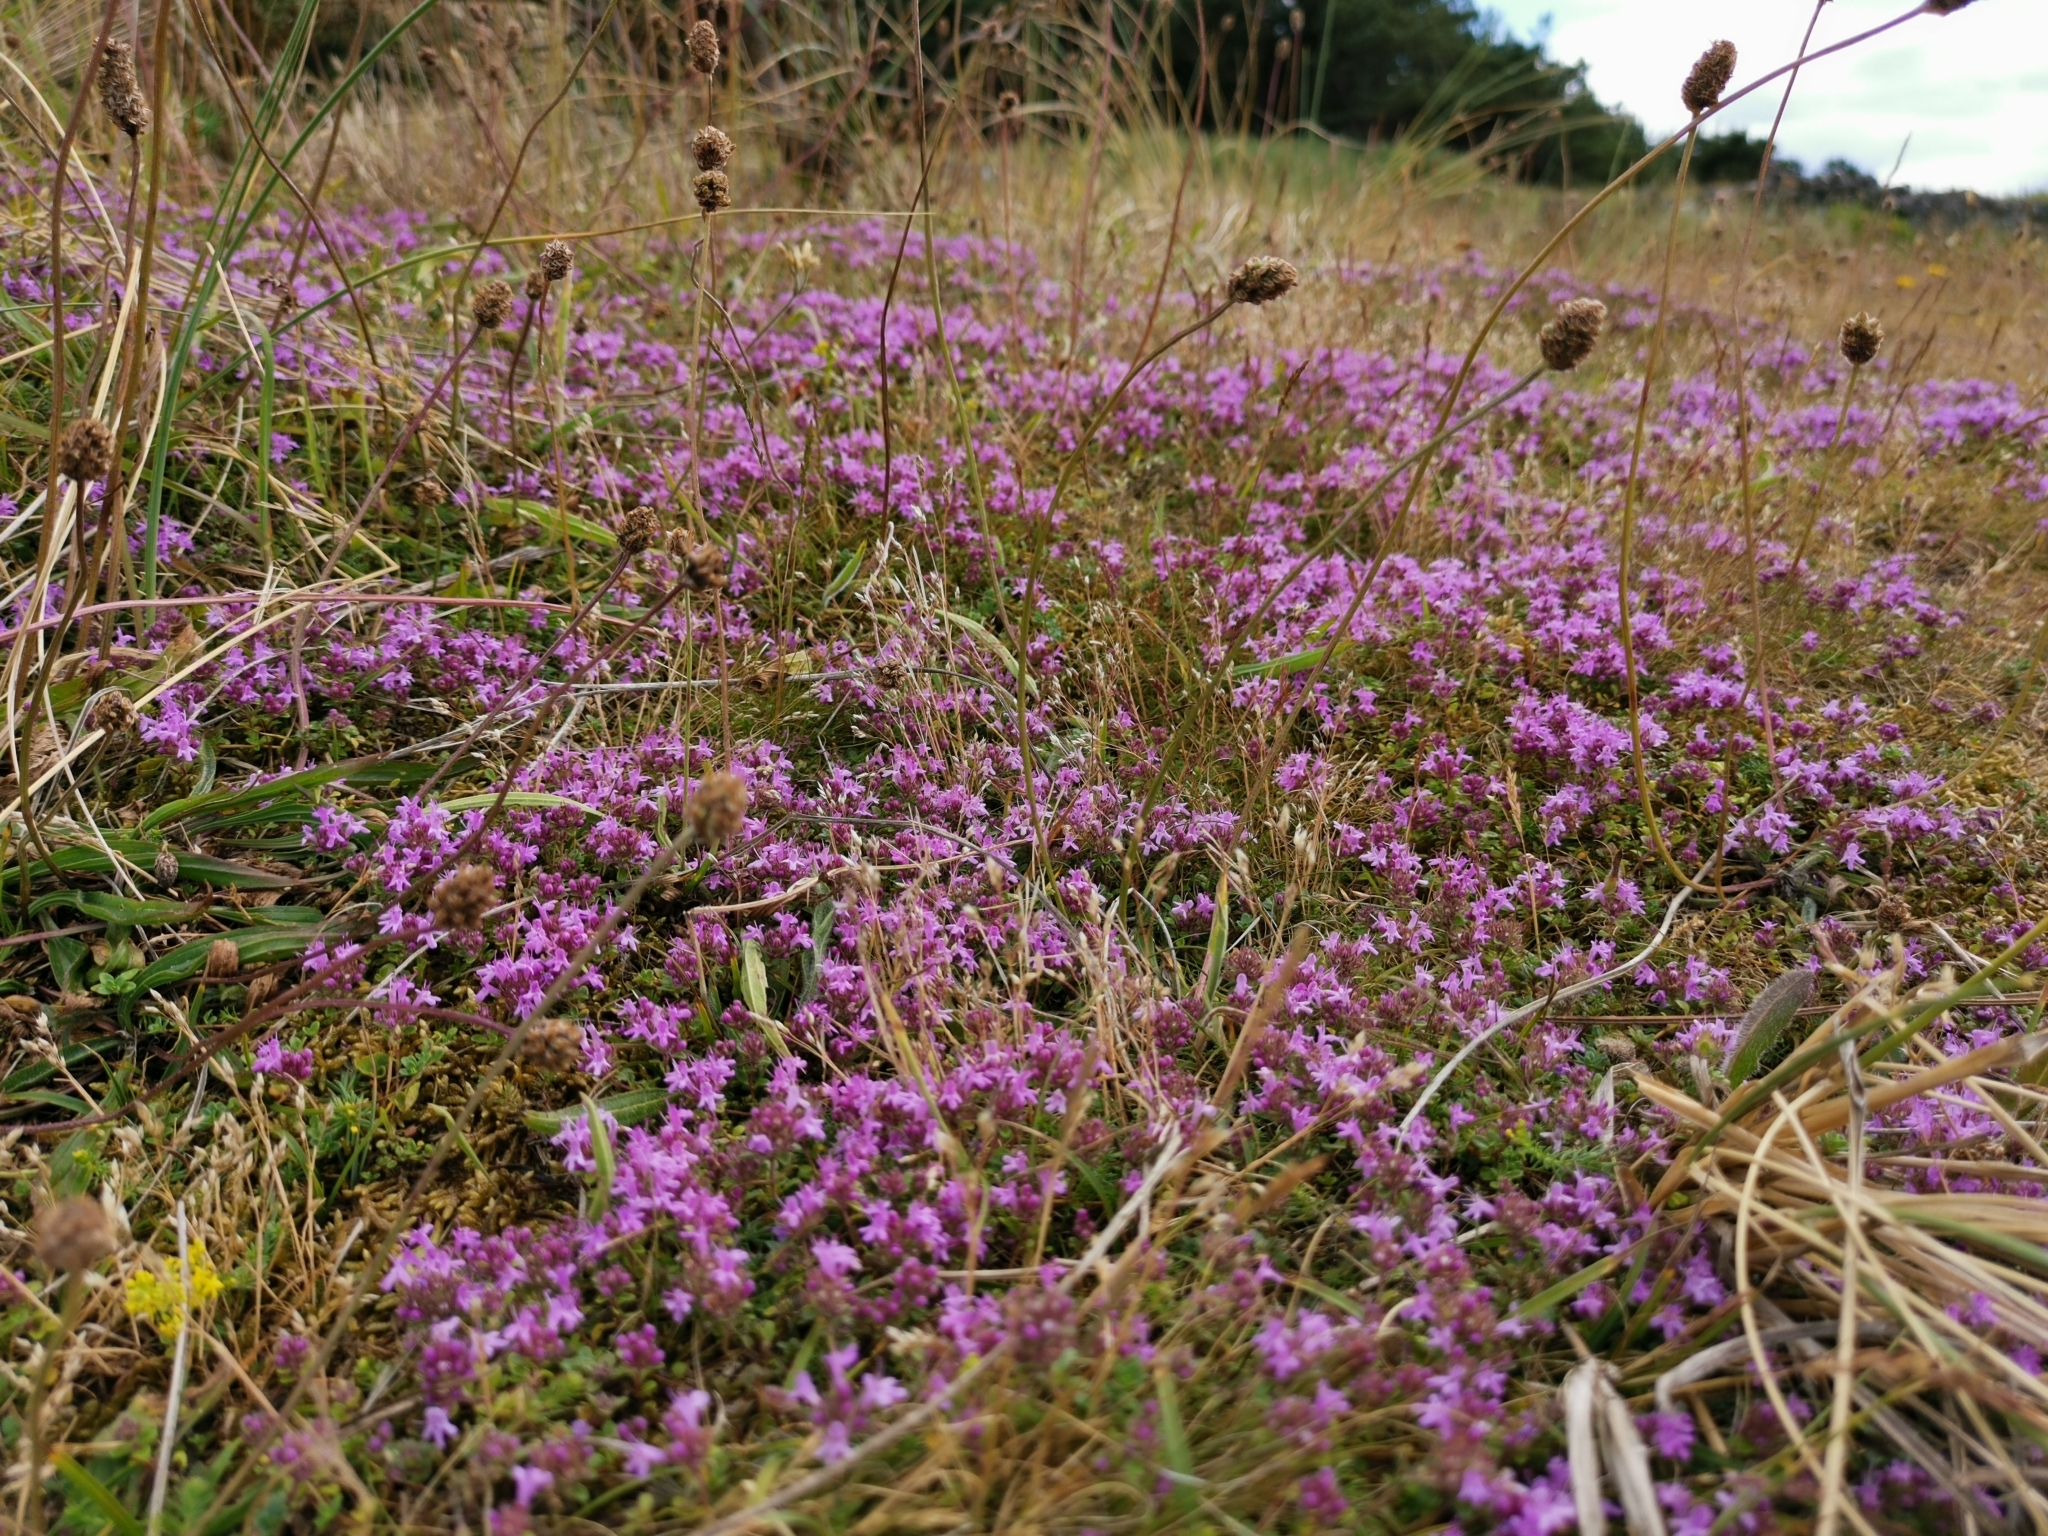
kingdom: Plantae
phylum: Tracheophyta
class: Magnoliopsida
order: Lamiales
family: Lamiaceae
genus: Thymus
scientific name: Thymus praecox
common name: Wild thyme
